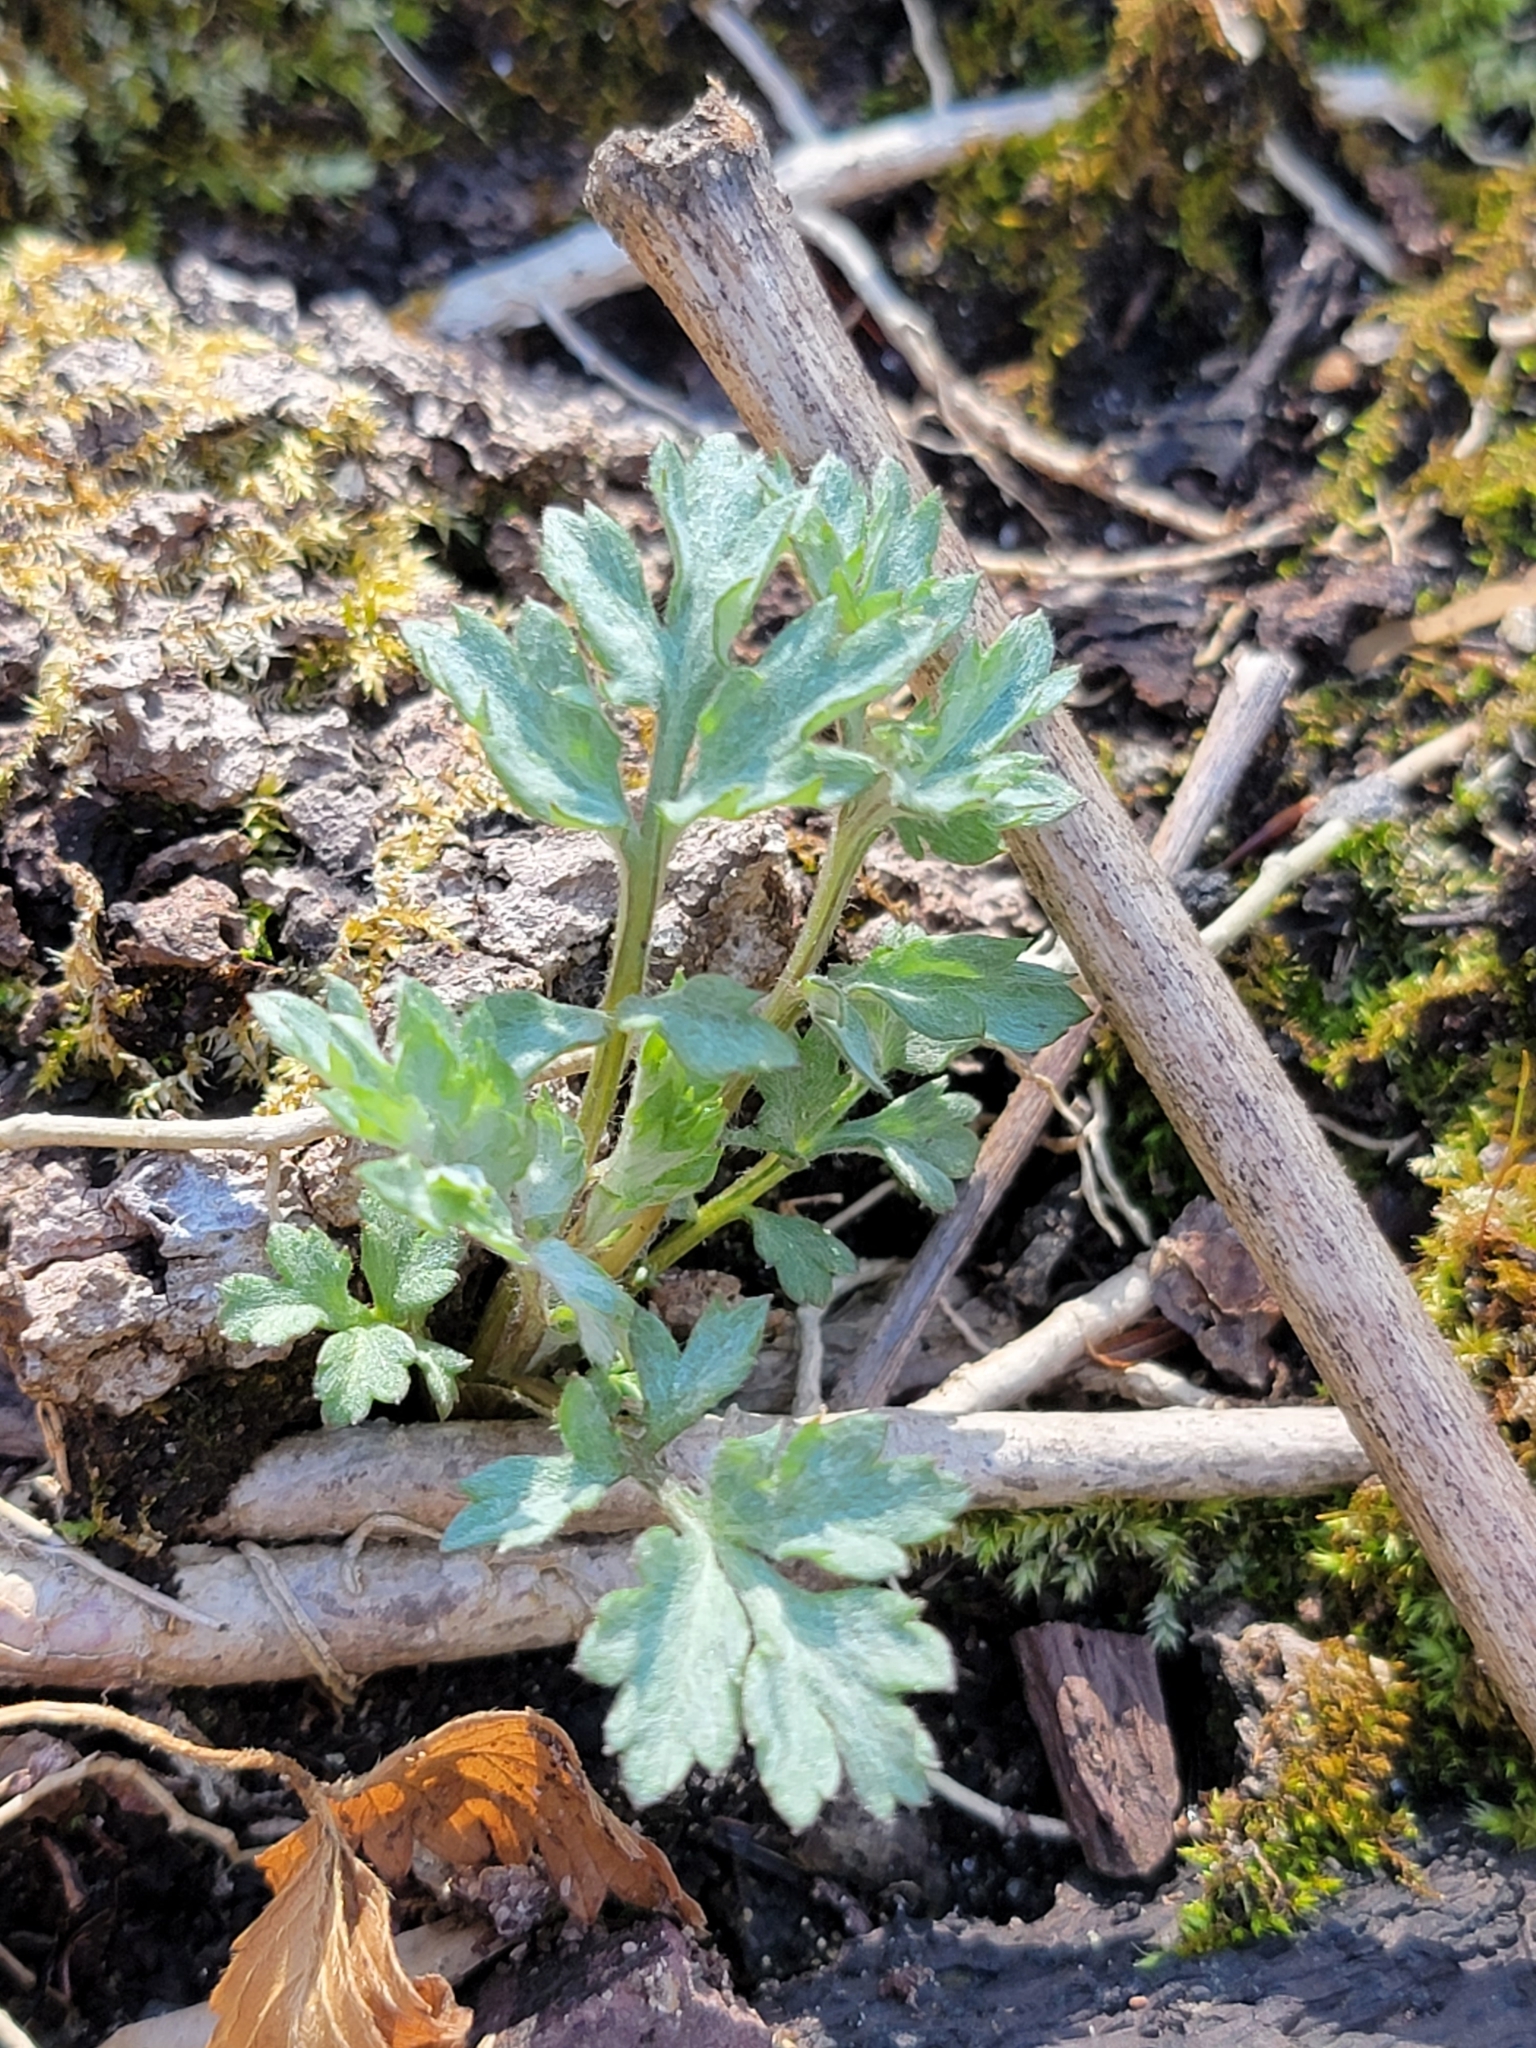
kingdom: Plantae
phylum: Tracheophyta
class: Magnoliopsida
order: Asterales
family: Asteraceae
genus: Artemisia
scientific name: Artemisia vulgaris
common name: Mugwort
